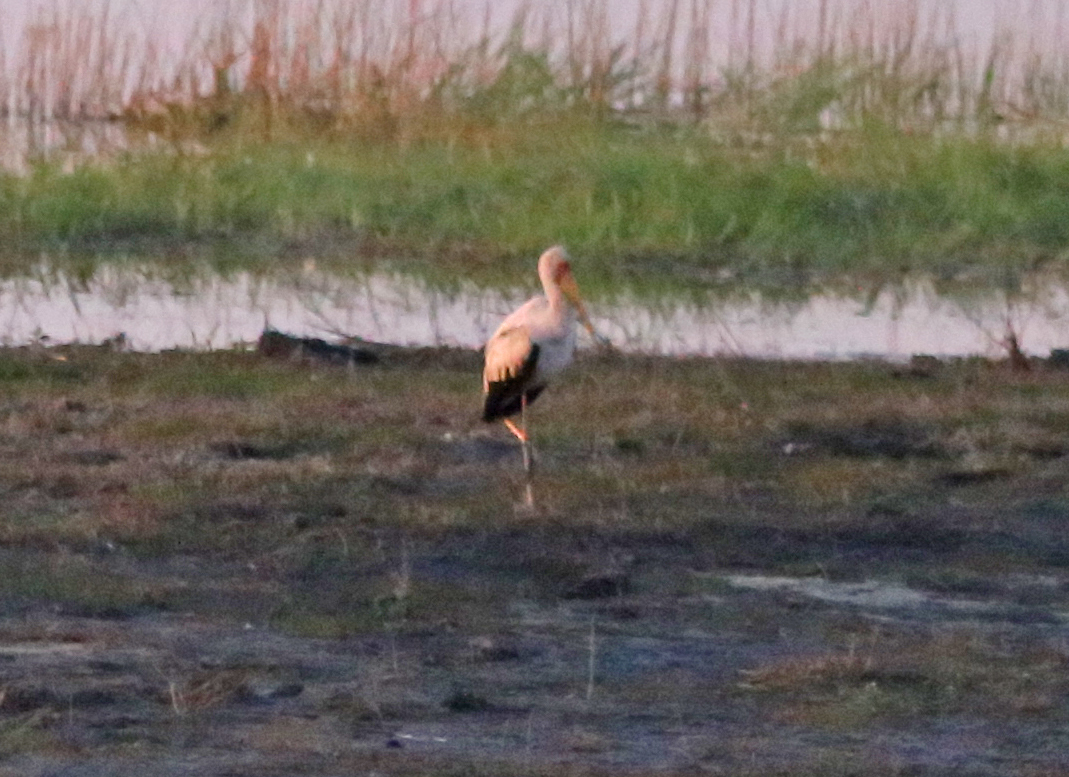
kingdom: Animalia
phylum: Chordata
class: Aves
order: Ciconiiformes
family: Ciconiidae
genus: Mycteria
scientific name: Mycteria ibis
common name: Yellow-billed stork
